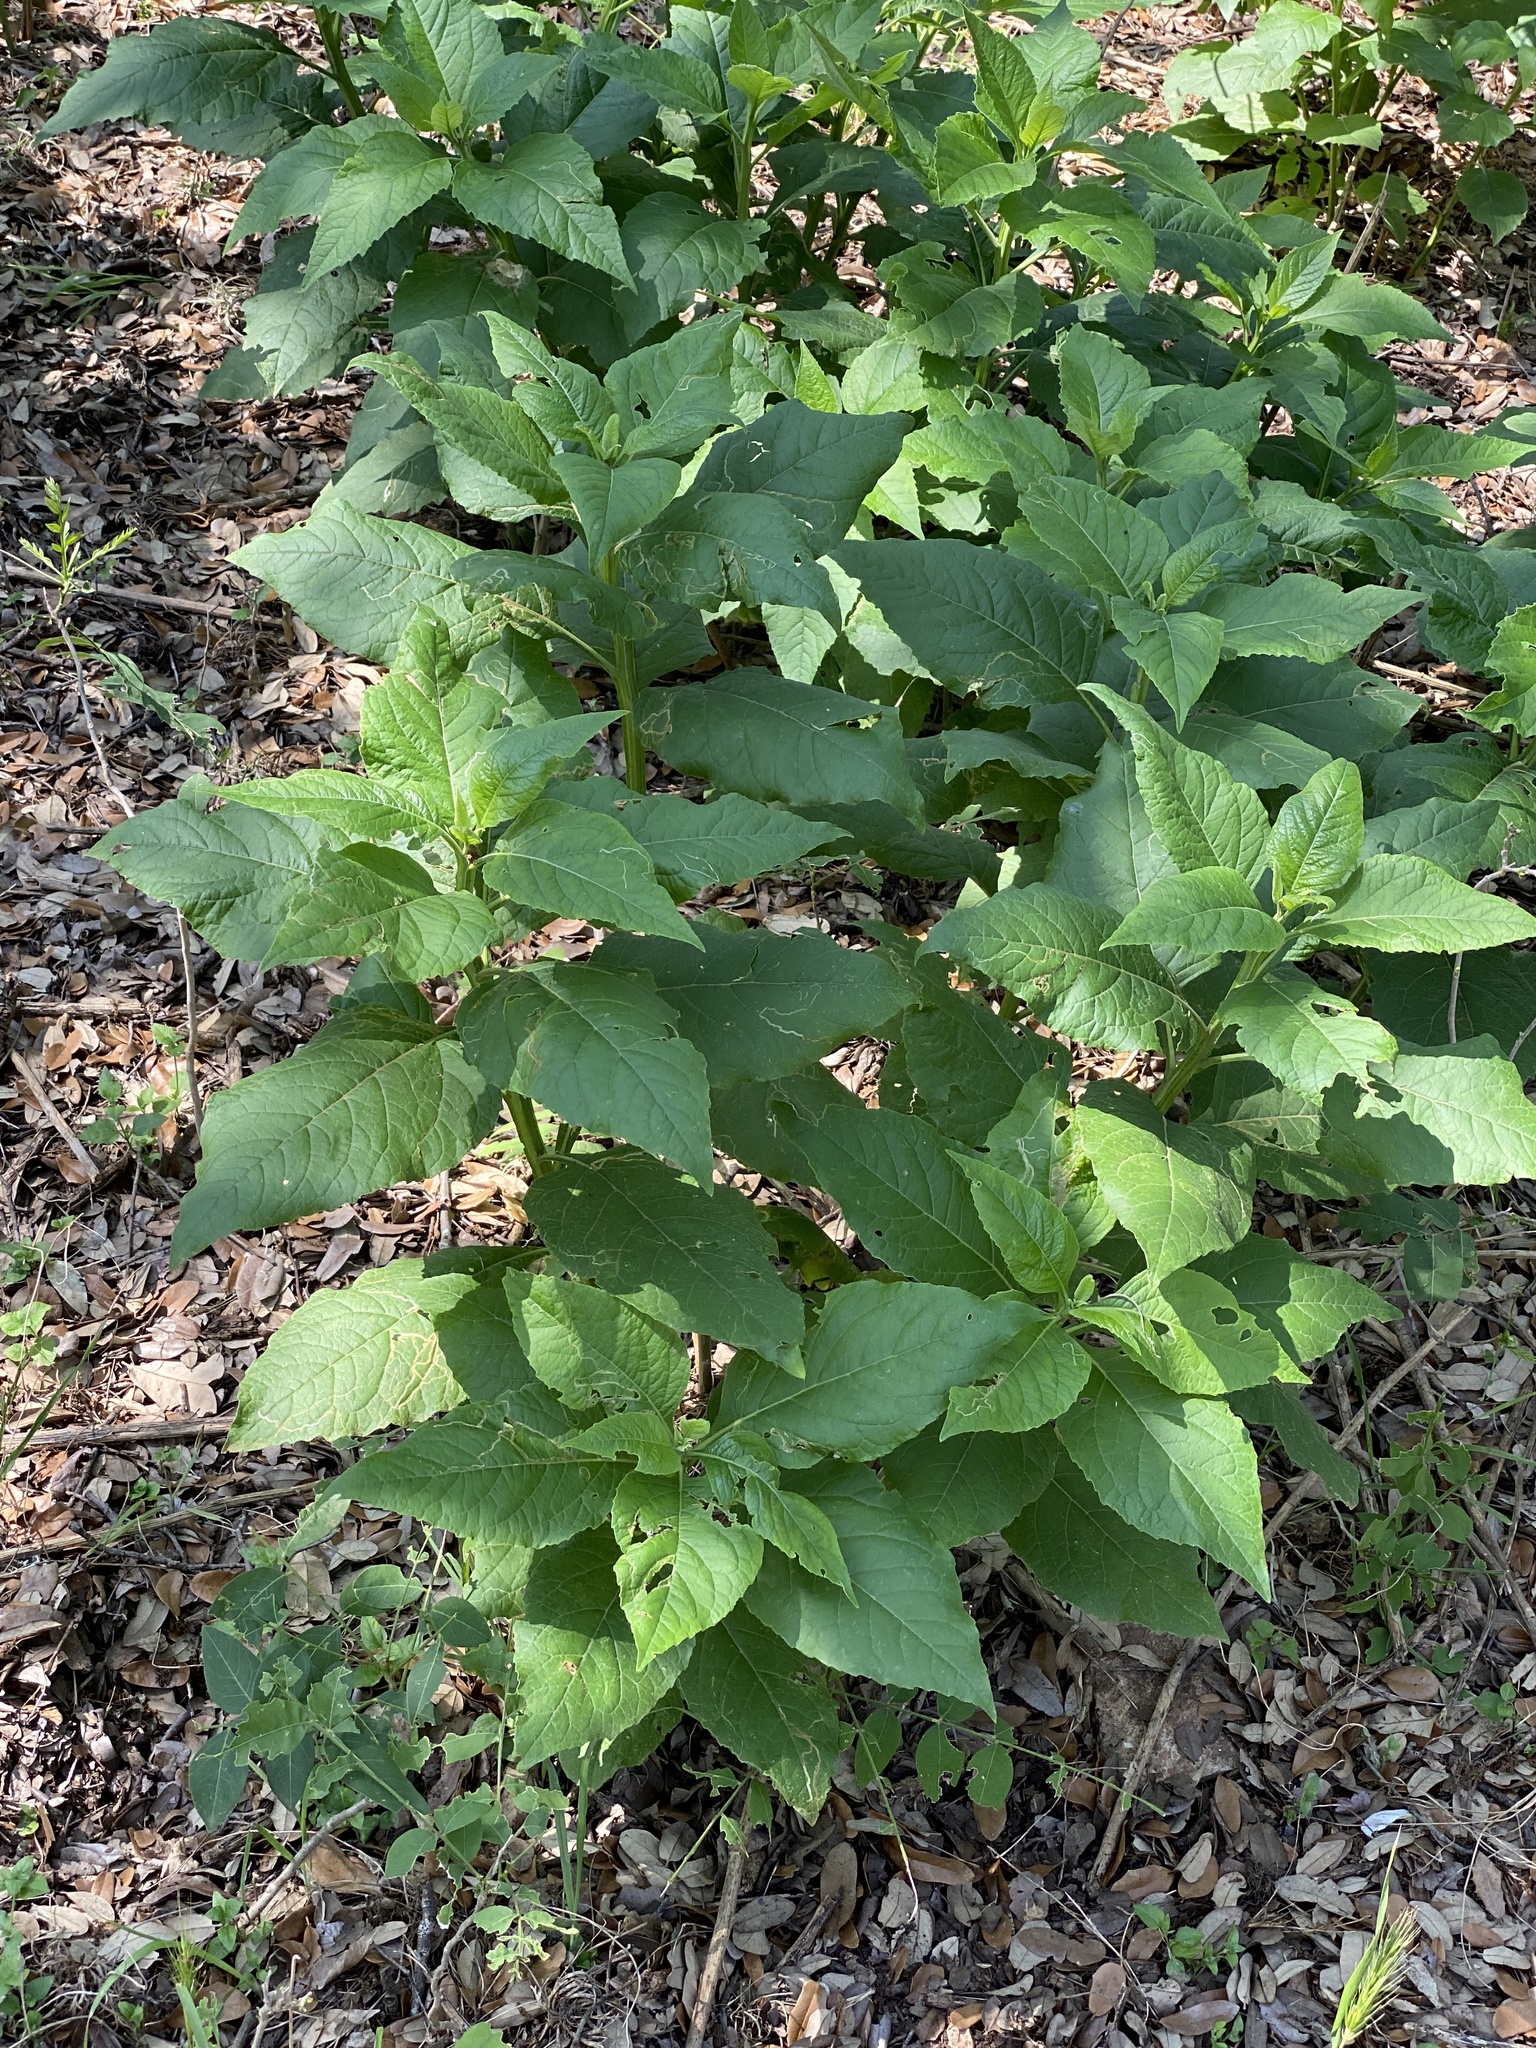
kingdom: Plantae
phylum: Tracheophyta
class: Magnoliopsida
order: Asterales
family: Asteraceae
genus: Verbesina
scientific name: Verbesina virginica
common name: Frostweed
